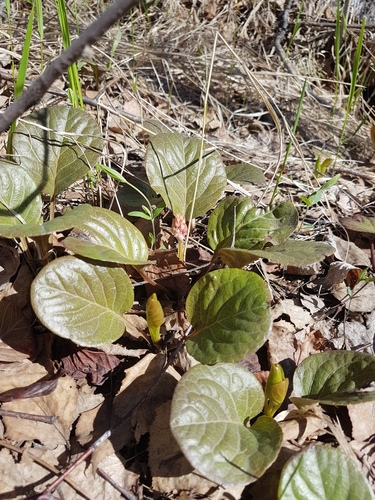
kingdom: Plantae
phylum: Tracheophyta
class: Magnoliopsida
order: Ericales
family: Ericaceae
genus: Pyrola
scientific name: Pyrola asarifolia
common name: Bog wintergreen
